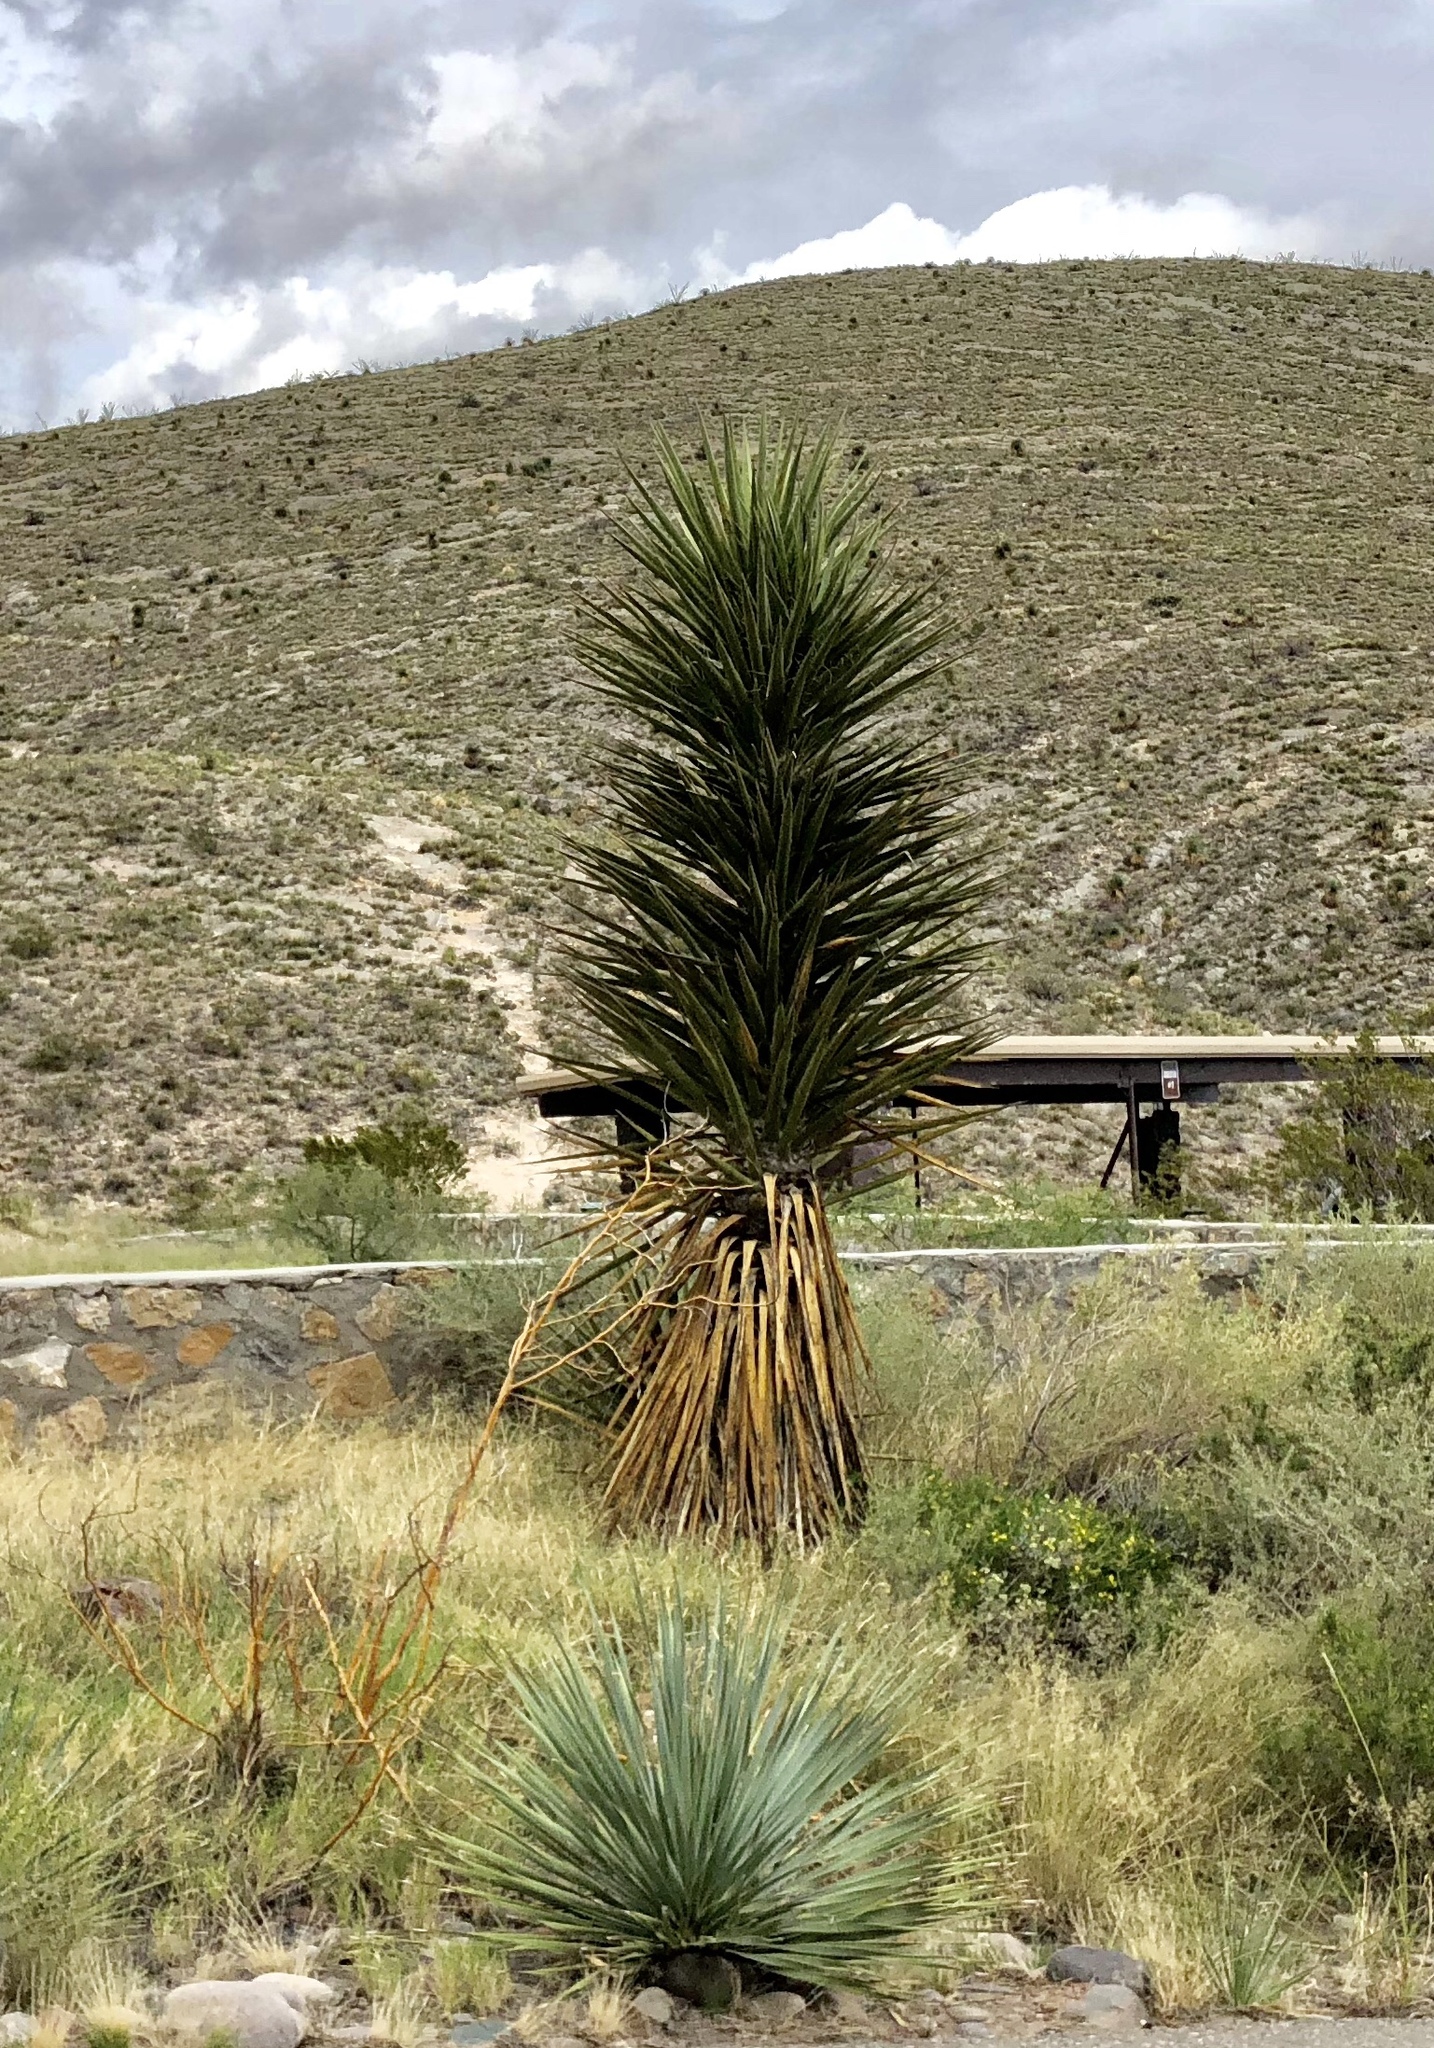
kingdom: Plantae
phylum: Tracheophyta
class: Liliopsida
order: Asparagales
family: Asparagaceae
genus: Yucca
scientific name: Yucca treculiana
